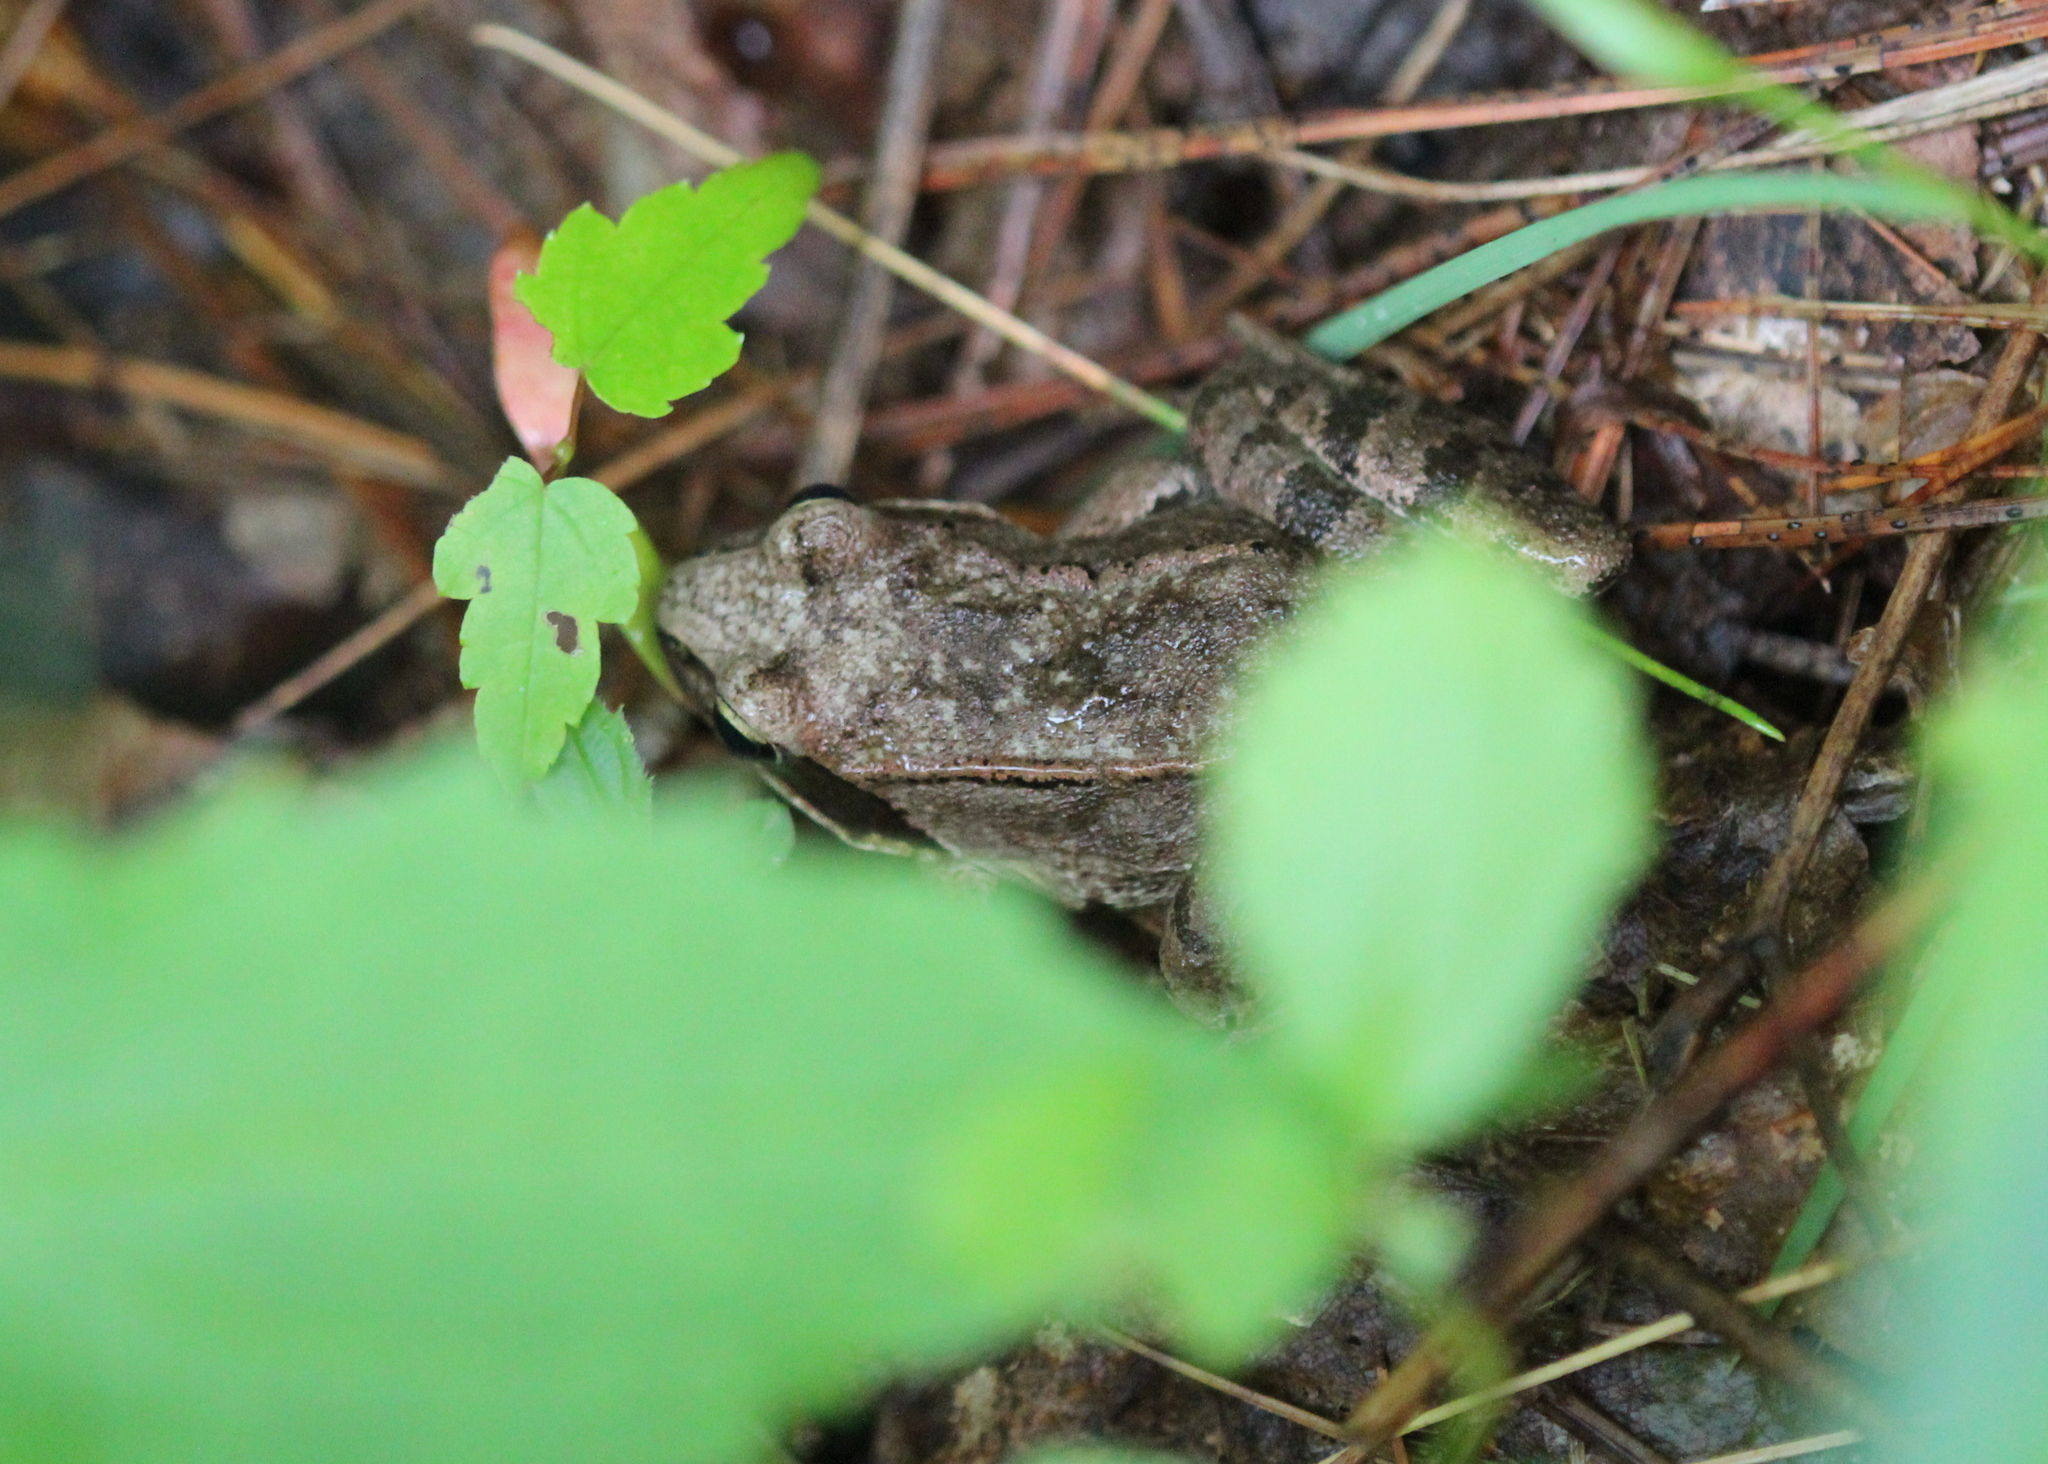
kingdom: Animalia
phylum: Chordata
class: Amphibia
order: Anura
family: Ranidae
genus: Lithobates
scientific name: Lithobates sylvaticus
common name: Wood frog
